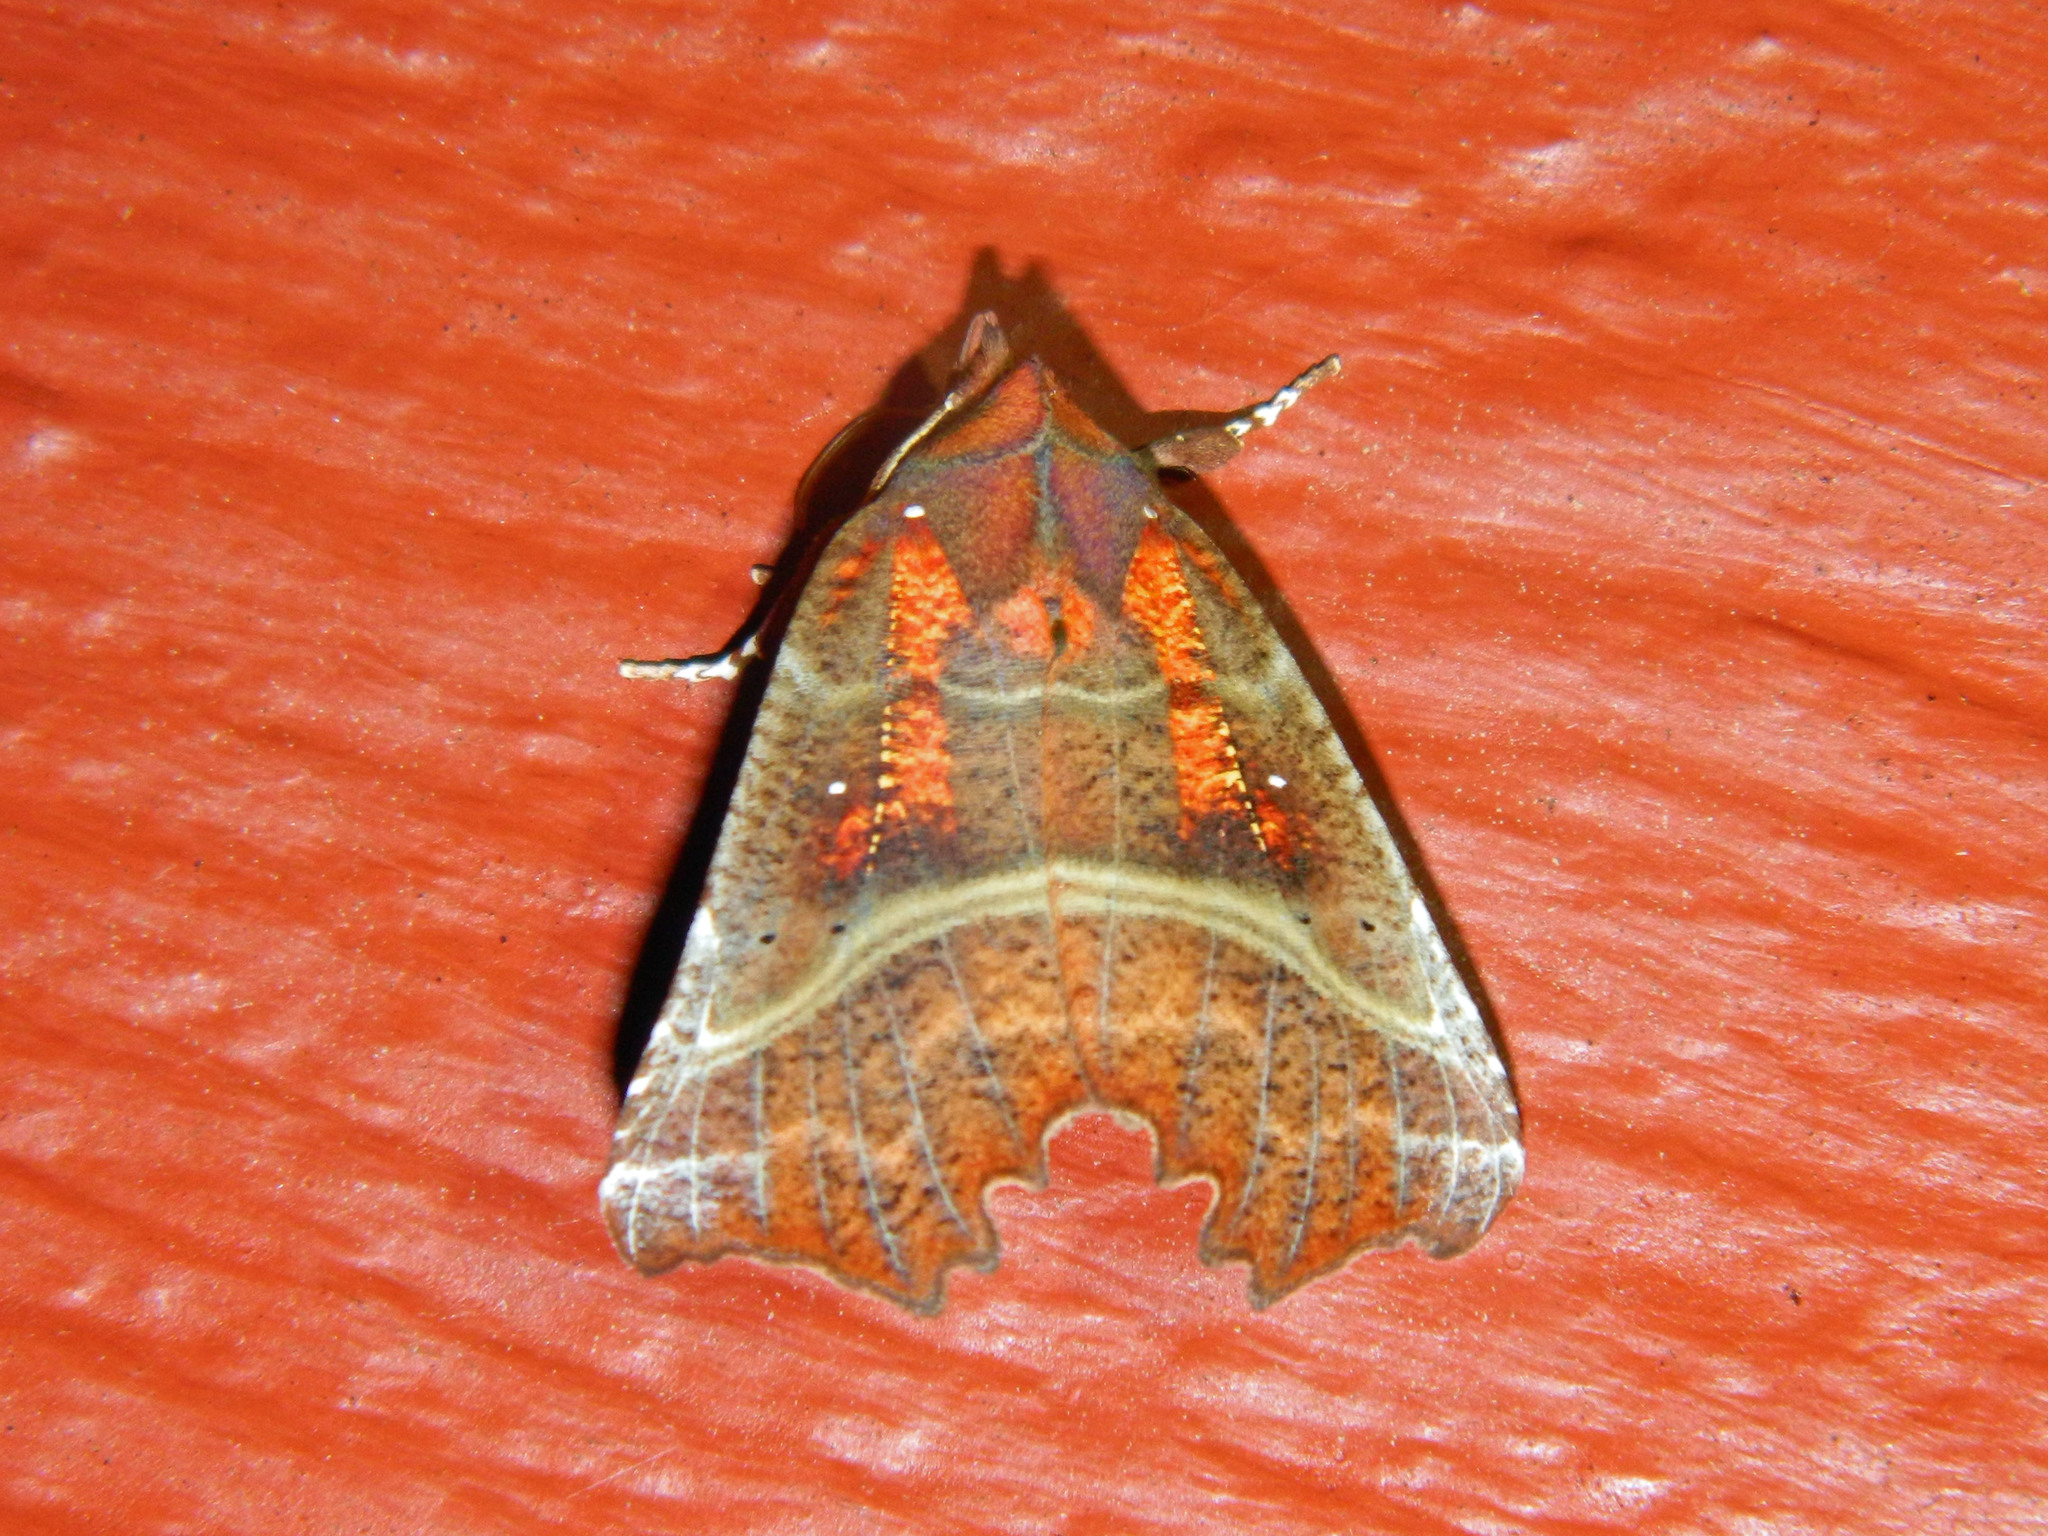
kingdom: Animalia
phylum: Arthropoda
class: Insecta
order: Lepidoptera
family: Erebidae
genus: Scoliopteryx
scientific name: Scoliopteryx libatrix
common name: Herald
